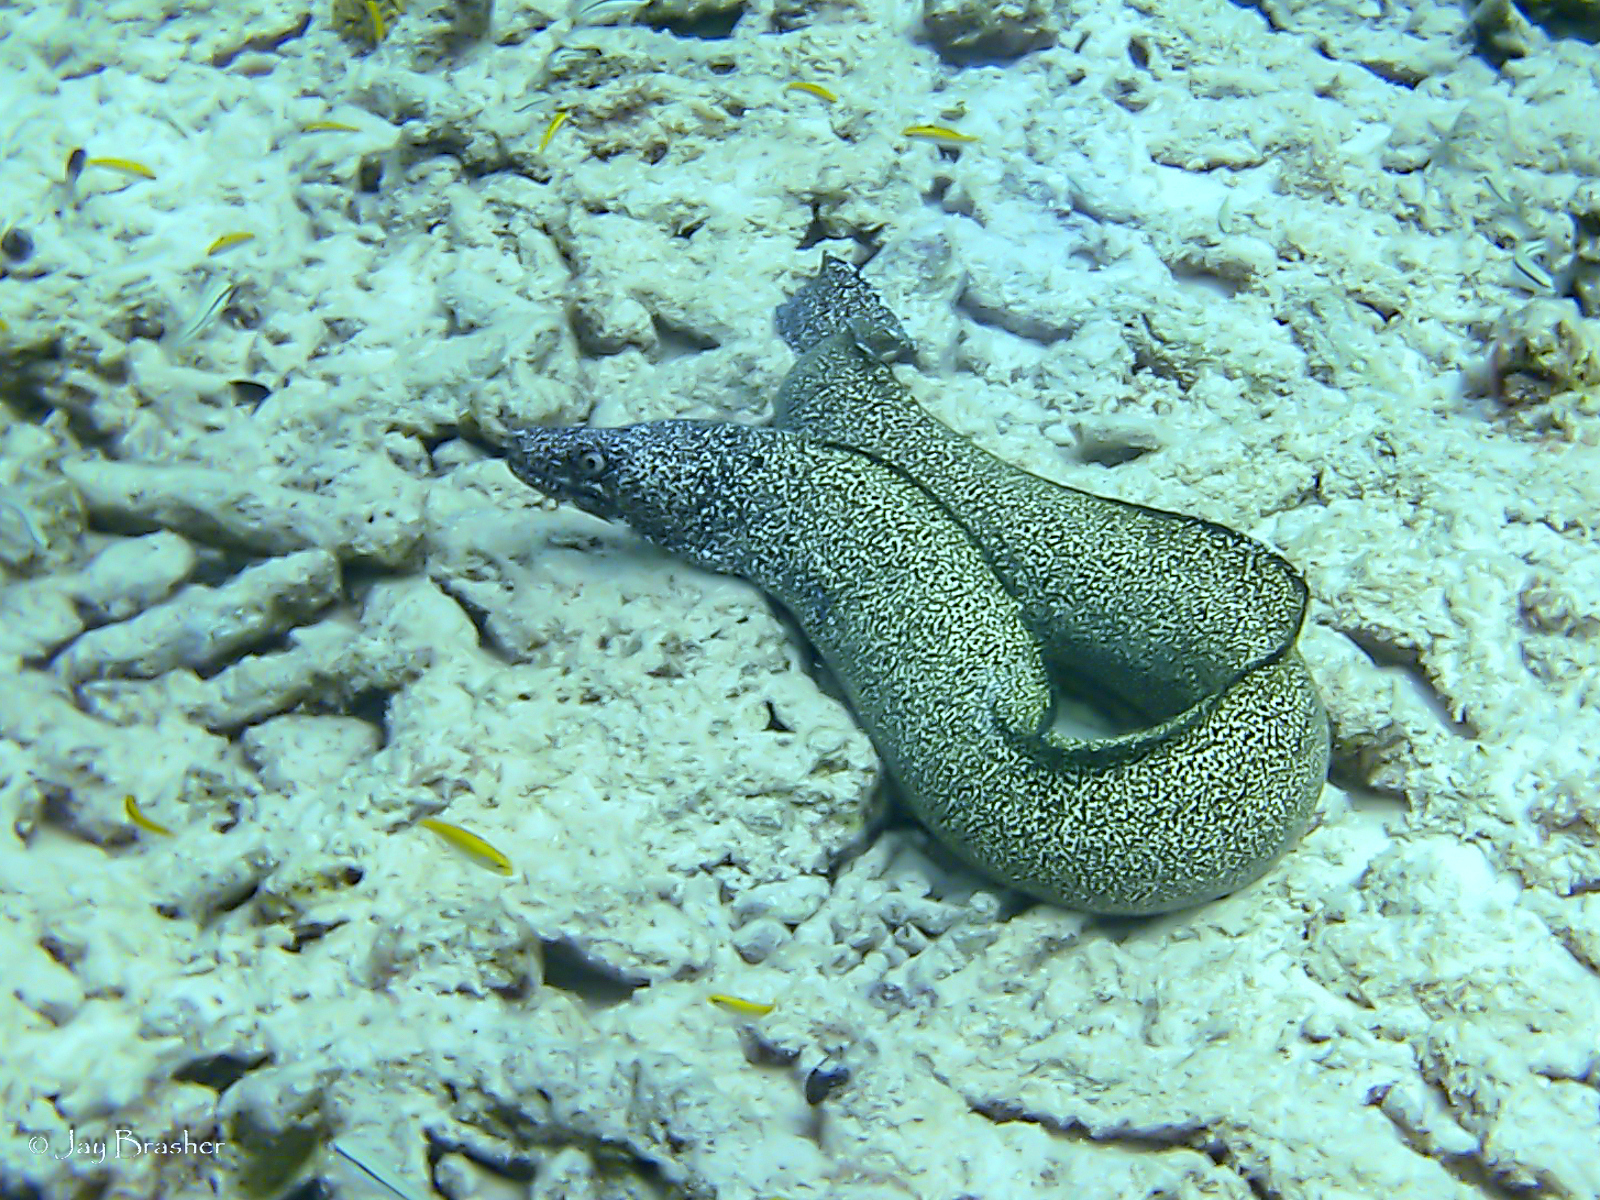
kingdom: Animalia
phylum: Chordata
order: Anguilliformes
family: Muraenidae
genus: Gymnothorax
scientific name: Gymnothorax moringa
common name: Spotted moray
